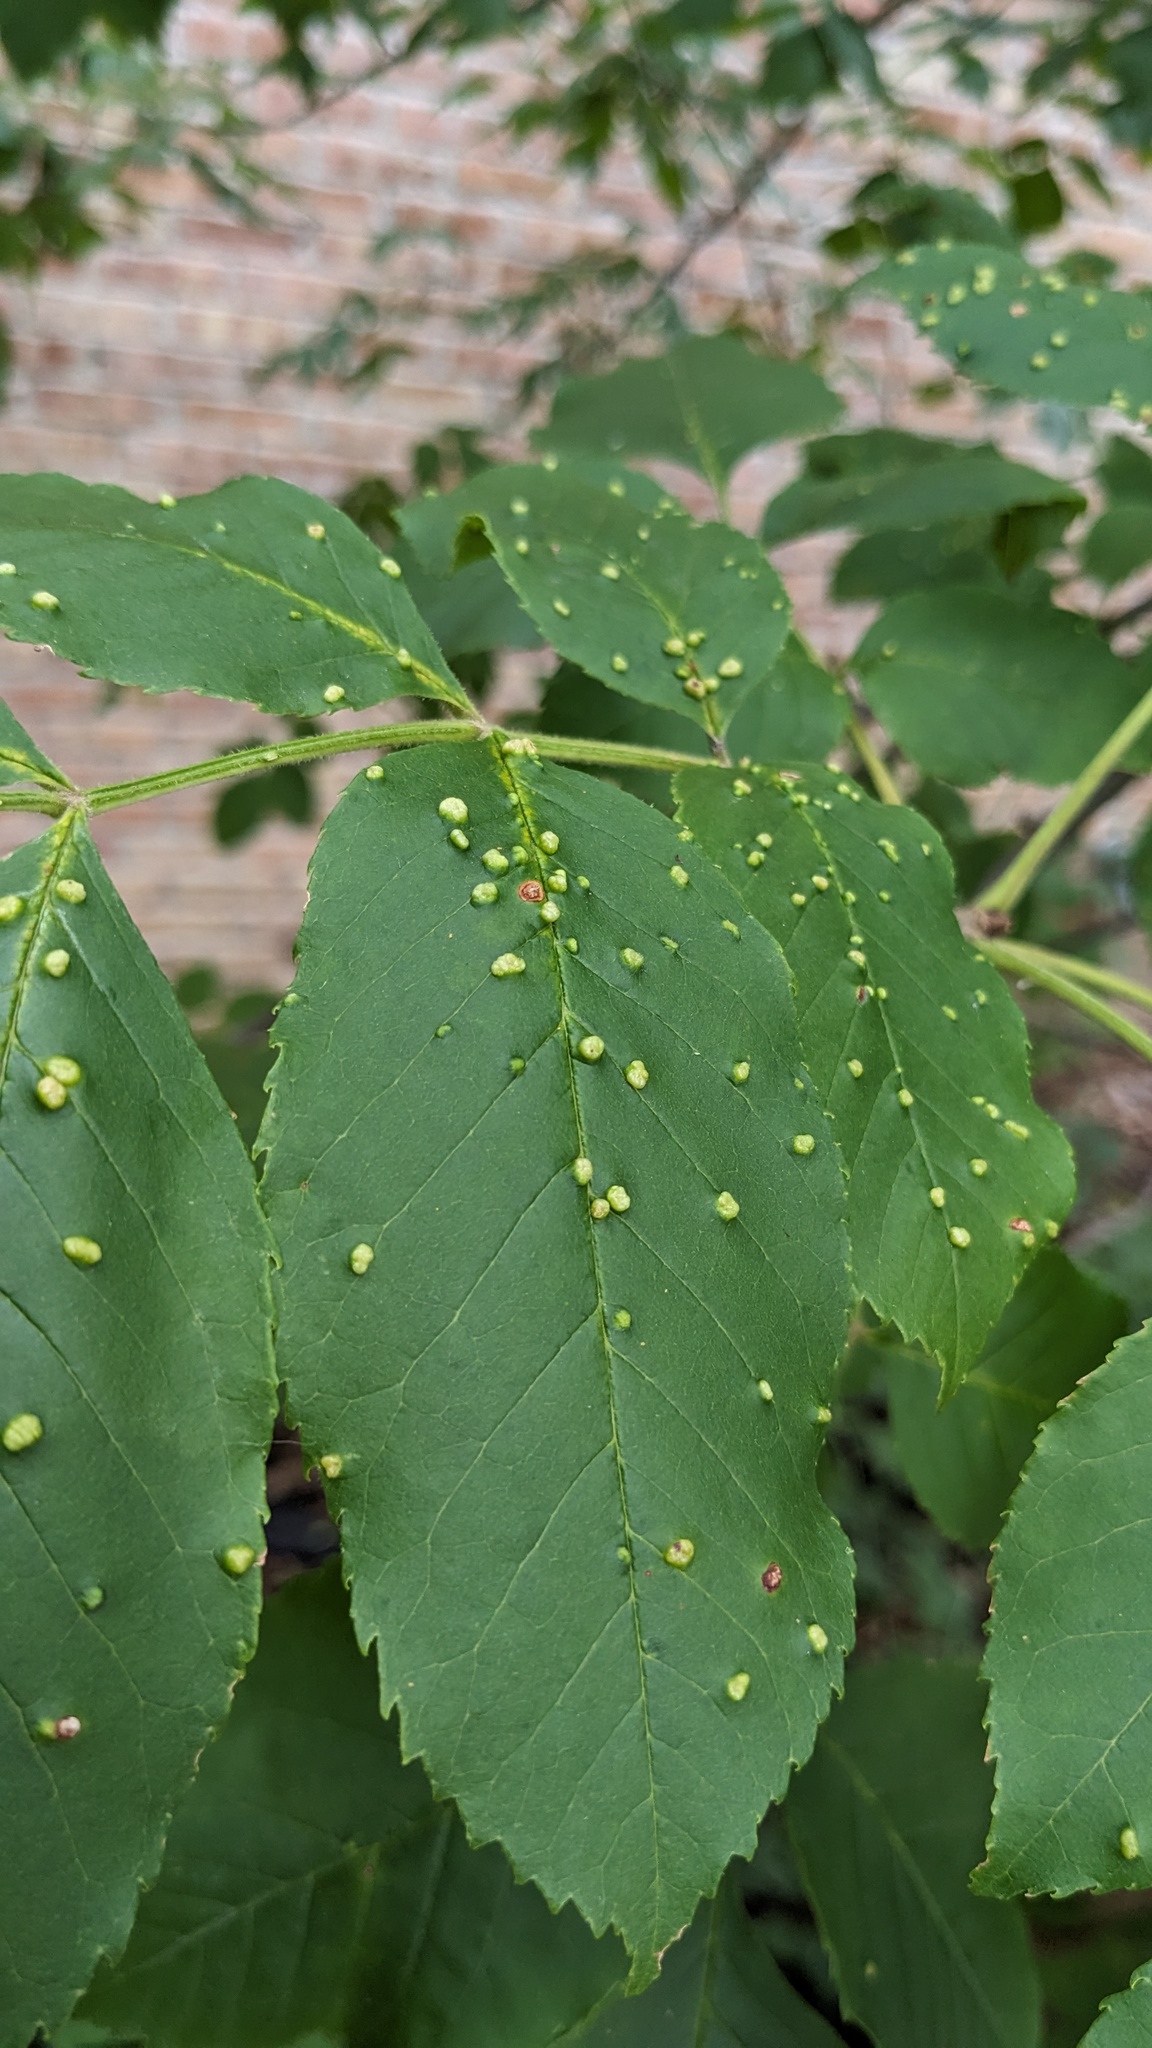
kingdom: Animalia
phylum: Arthropoda
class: Arachnida
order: Trombidiformes
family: Eriophyidae
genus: Aceria
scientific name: Aceria fraxinicola
